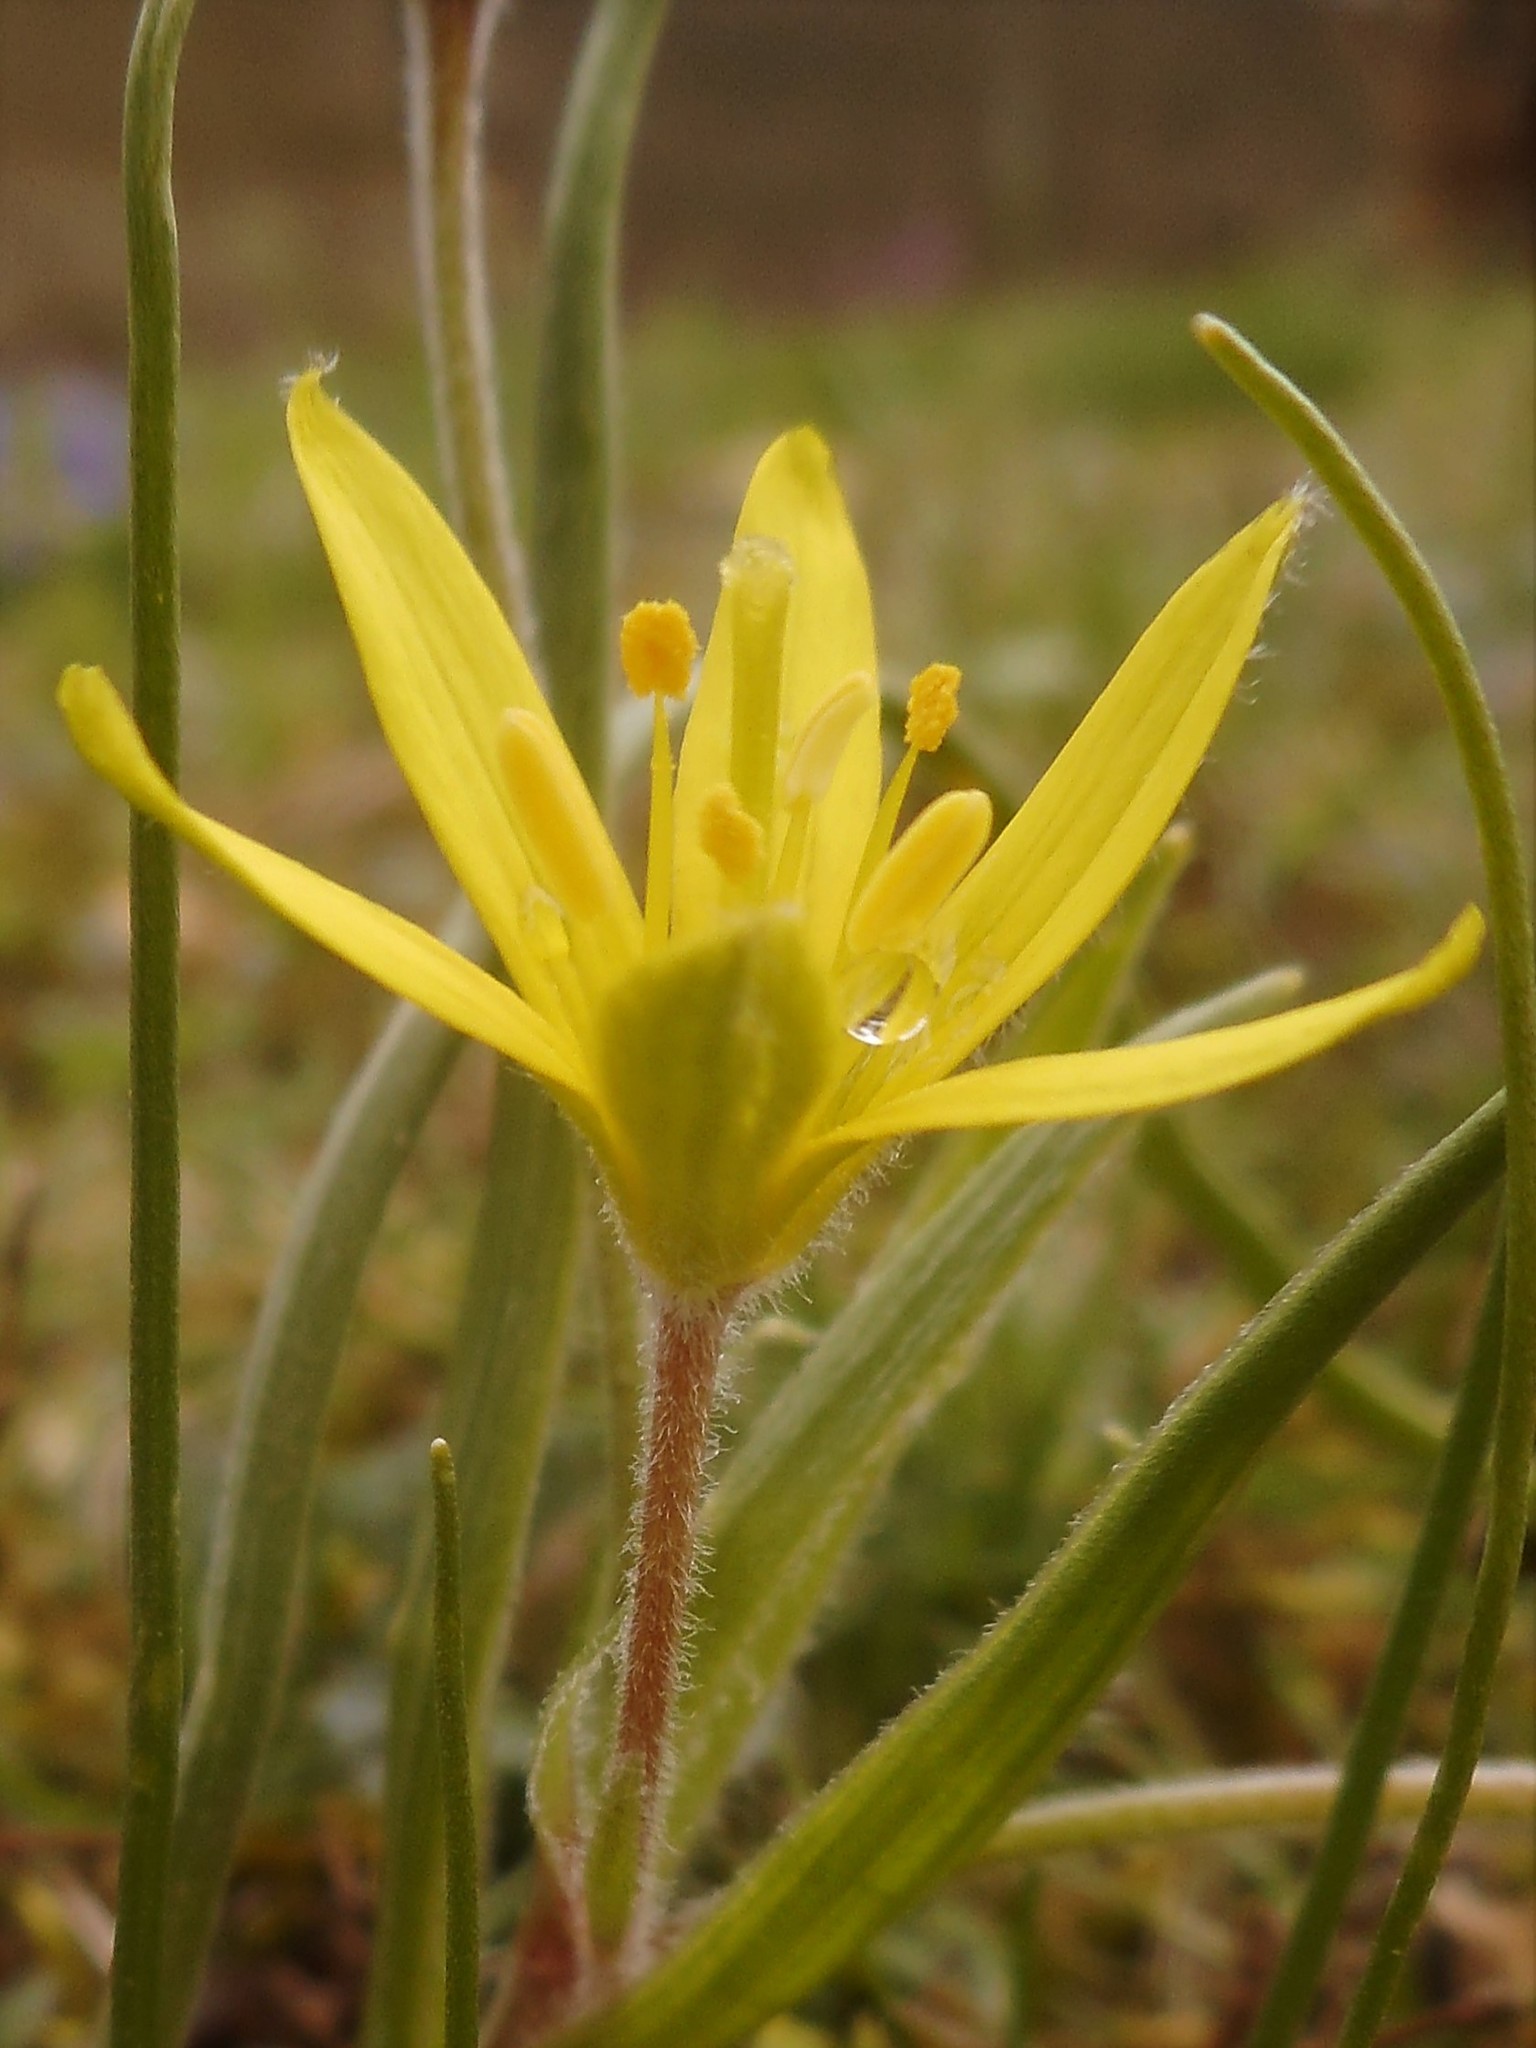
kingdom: Plantae
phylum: Tracheophyta
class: Liliopsida
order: Liliales
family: Liliaceae
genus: Gagea
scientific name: Gagea villosa
